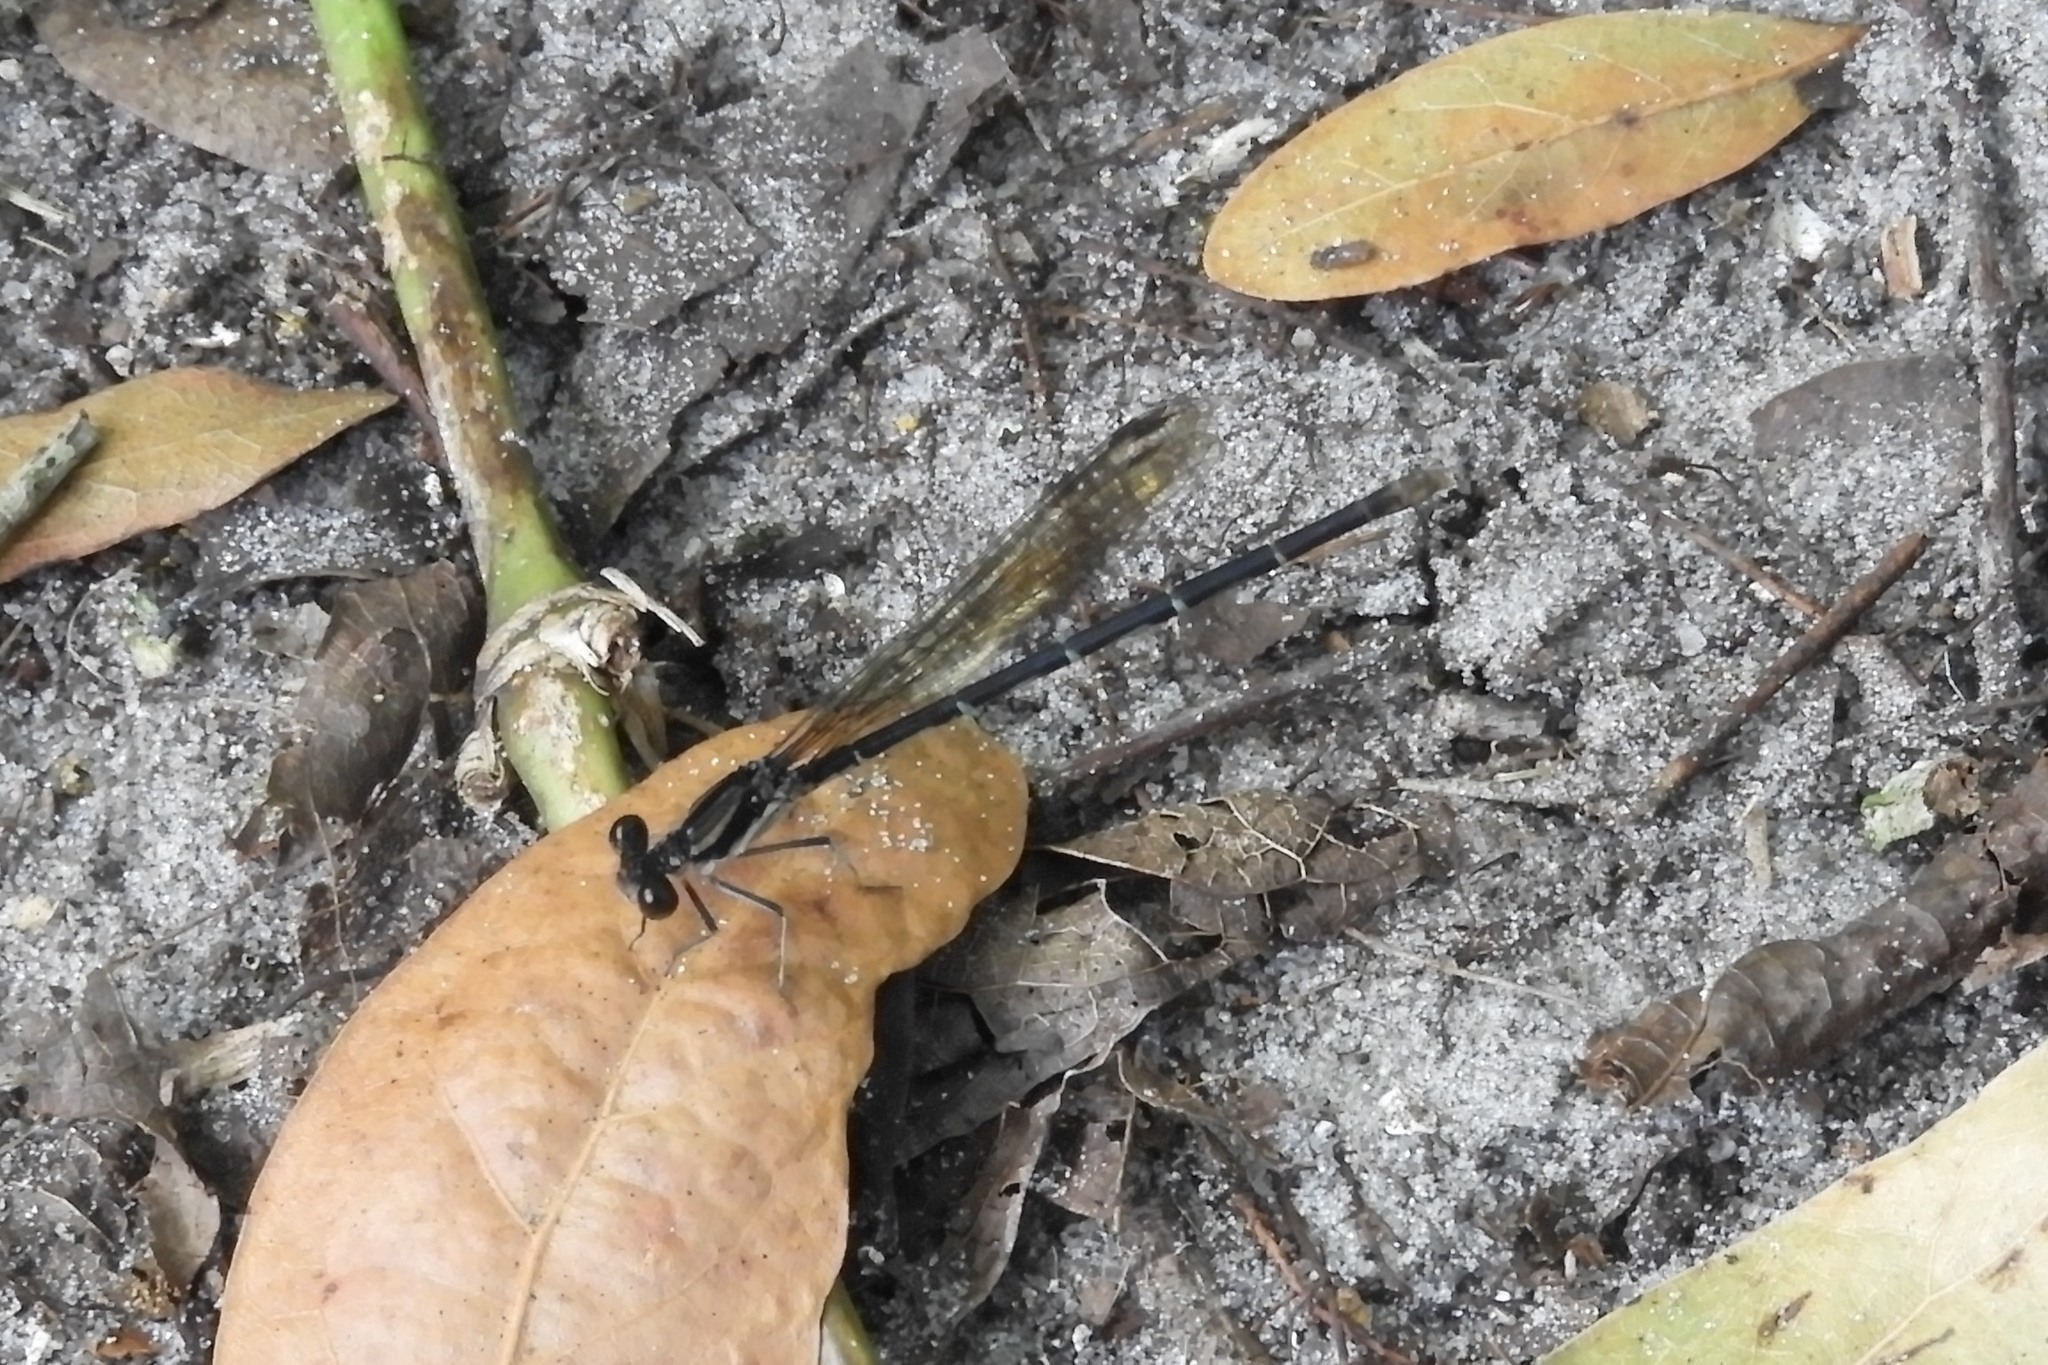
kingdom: Animalia
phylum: Arthropoda
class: Insecta
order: Odonata
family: Coenagrionidae
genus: Argia
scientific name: Argia tibialis
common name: Blue-tipped dancer
